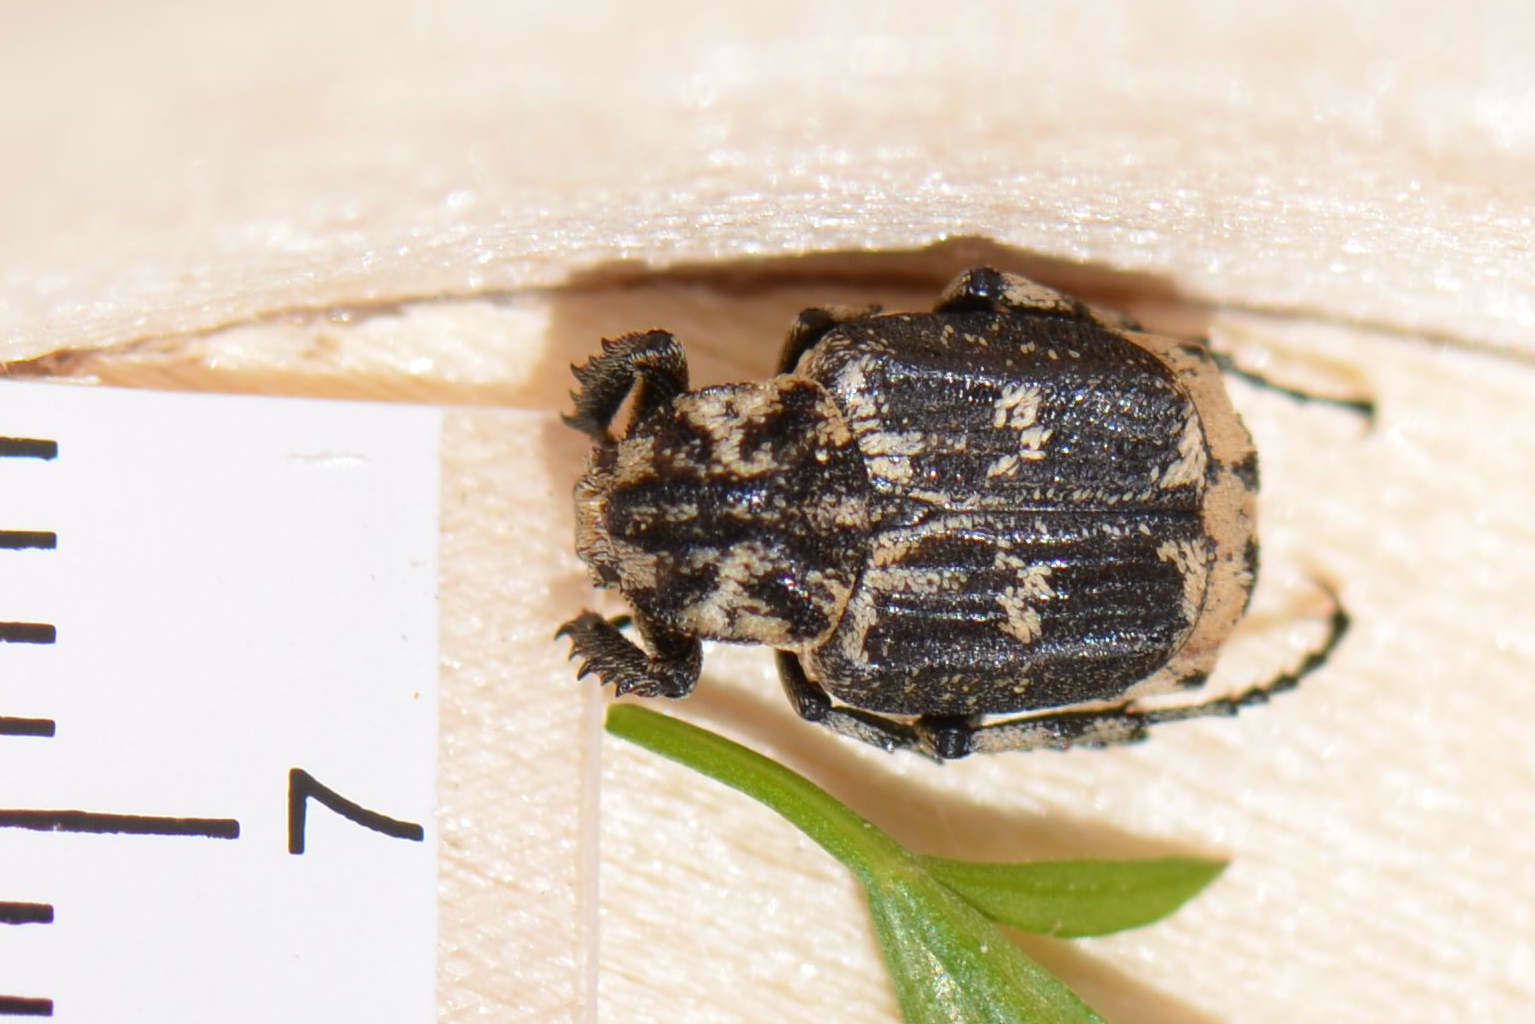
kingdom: Animalia
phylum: Arthropoda
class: Insecta
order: Coleoptera
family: Scarabaeidae
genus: Valgus
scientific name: Valgus hemipterus
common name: Bug flower chafer
